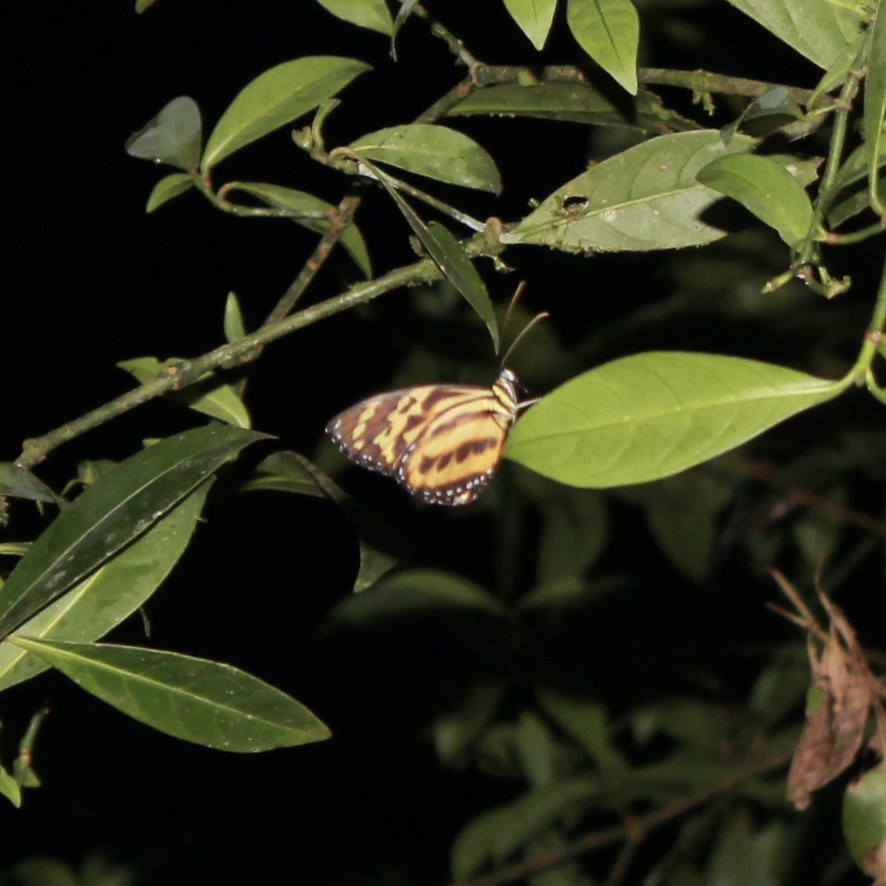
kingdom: Animalia
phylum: Arthropoda
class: Insecta
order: Lepidoptera
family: Nymphalidae
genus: Tithorea
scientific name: Tithorea harmonia
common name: Harmonia tigerwing
